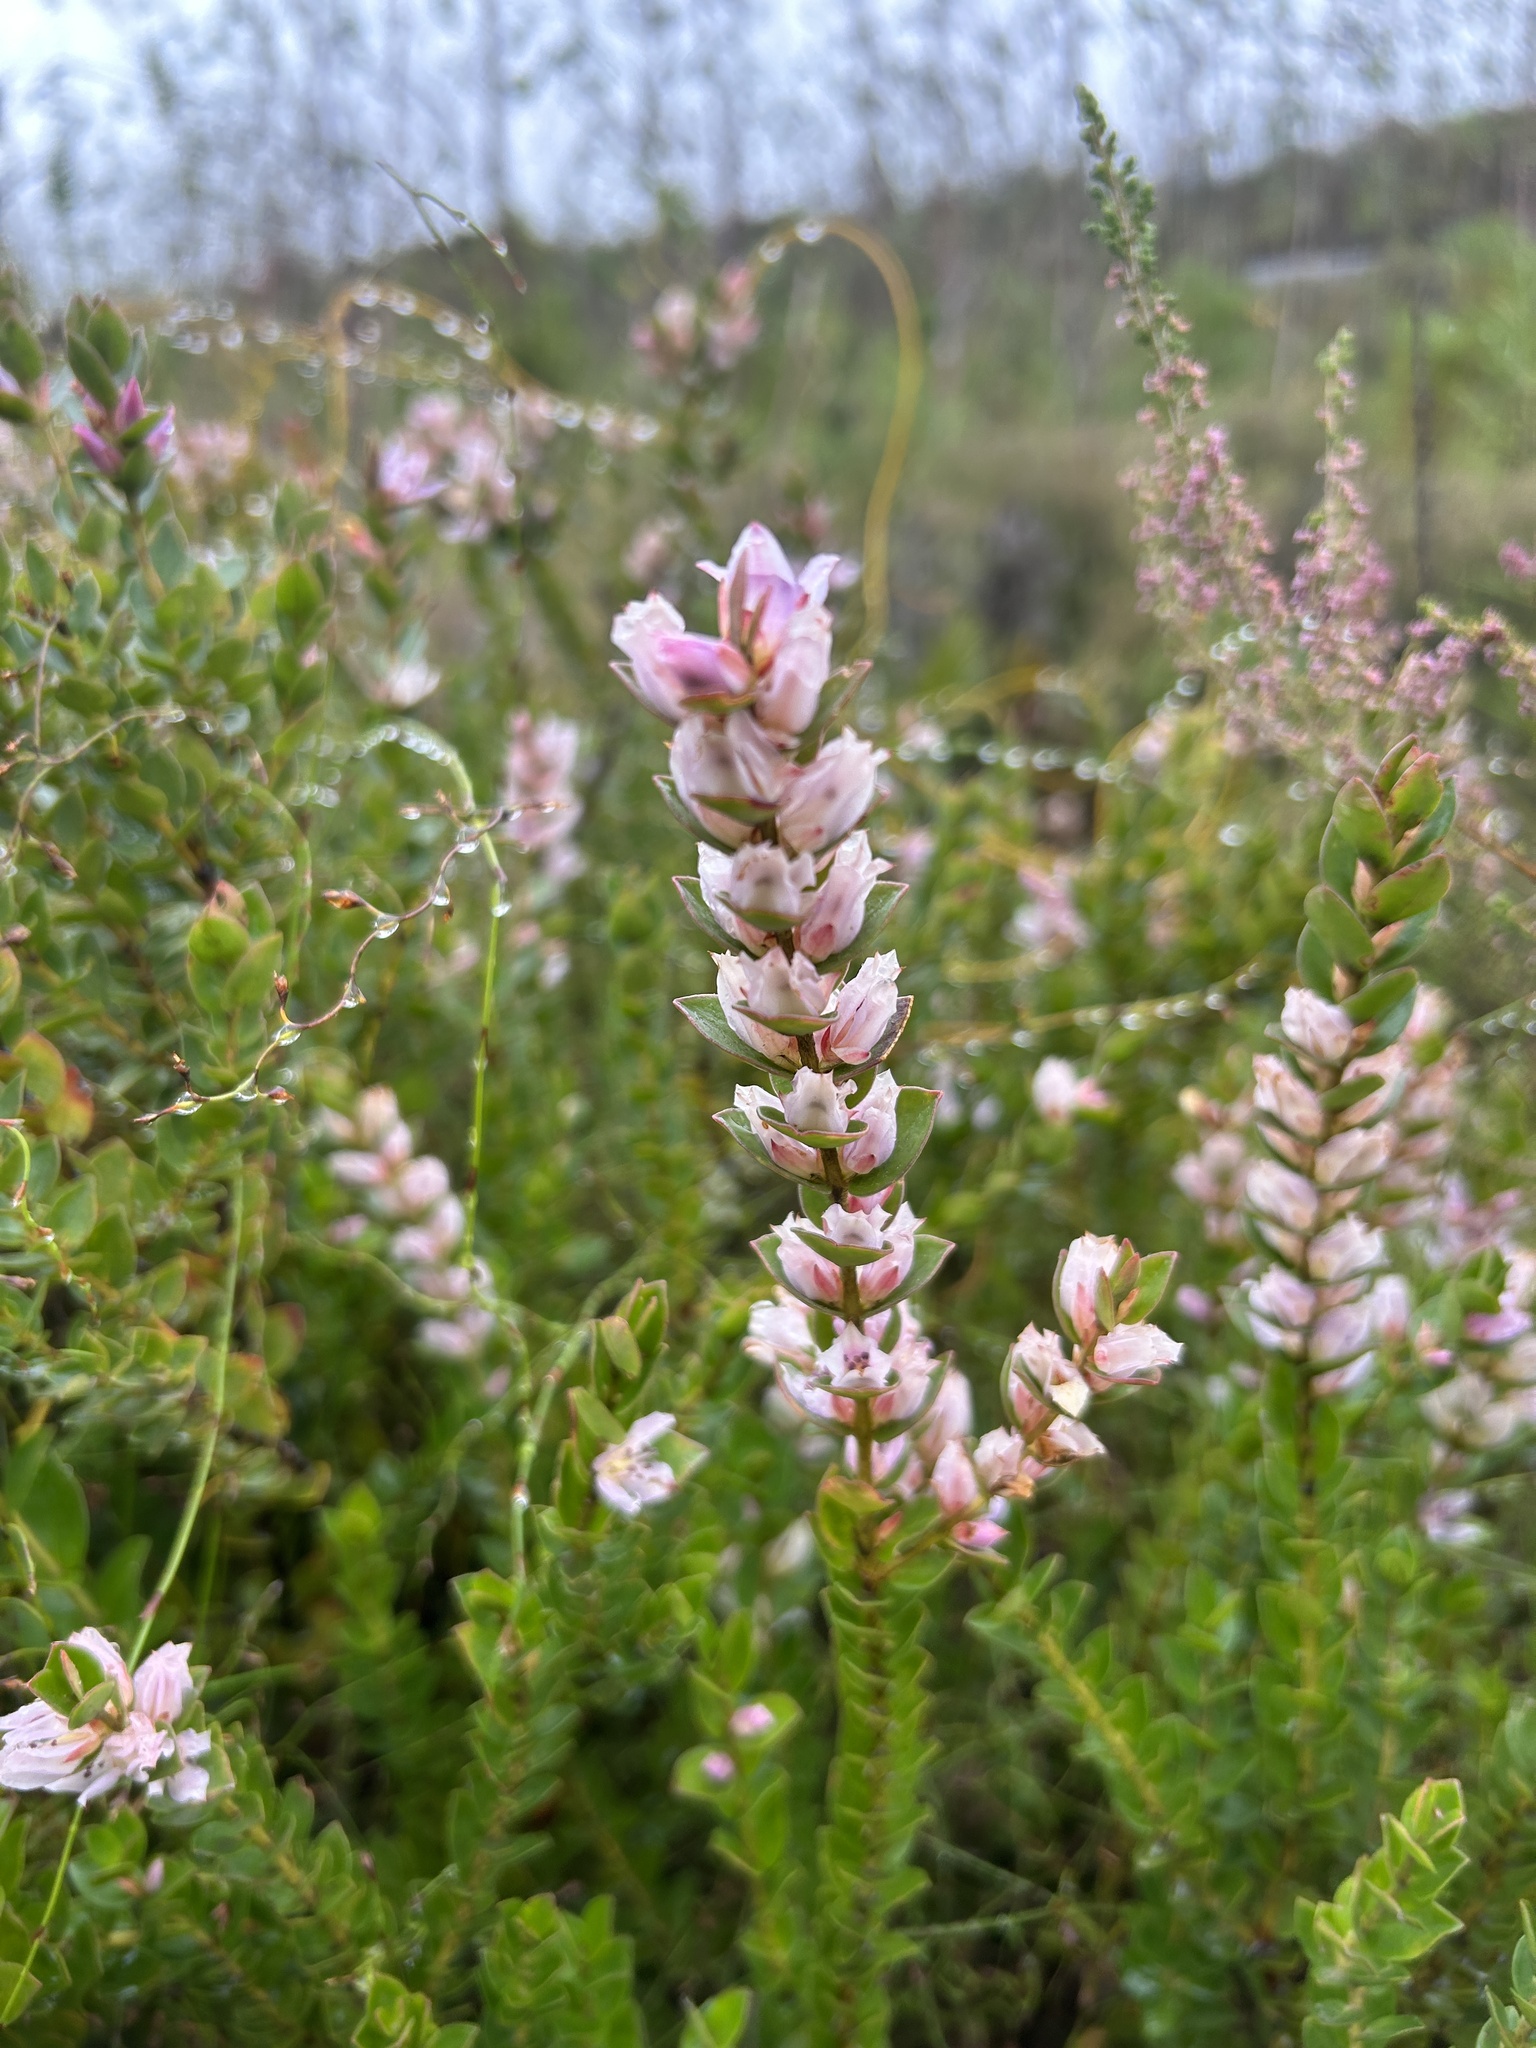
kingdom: Plantae
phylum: Tracheophyta
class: Magnoliopsida
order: Crossosomatales
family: Geissolomataceae
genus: Geissoloma
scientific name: Geissoloma marginata
